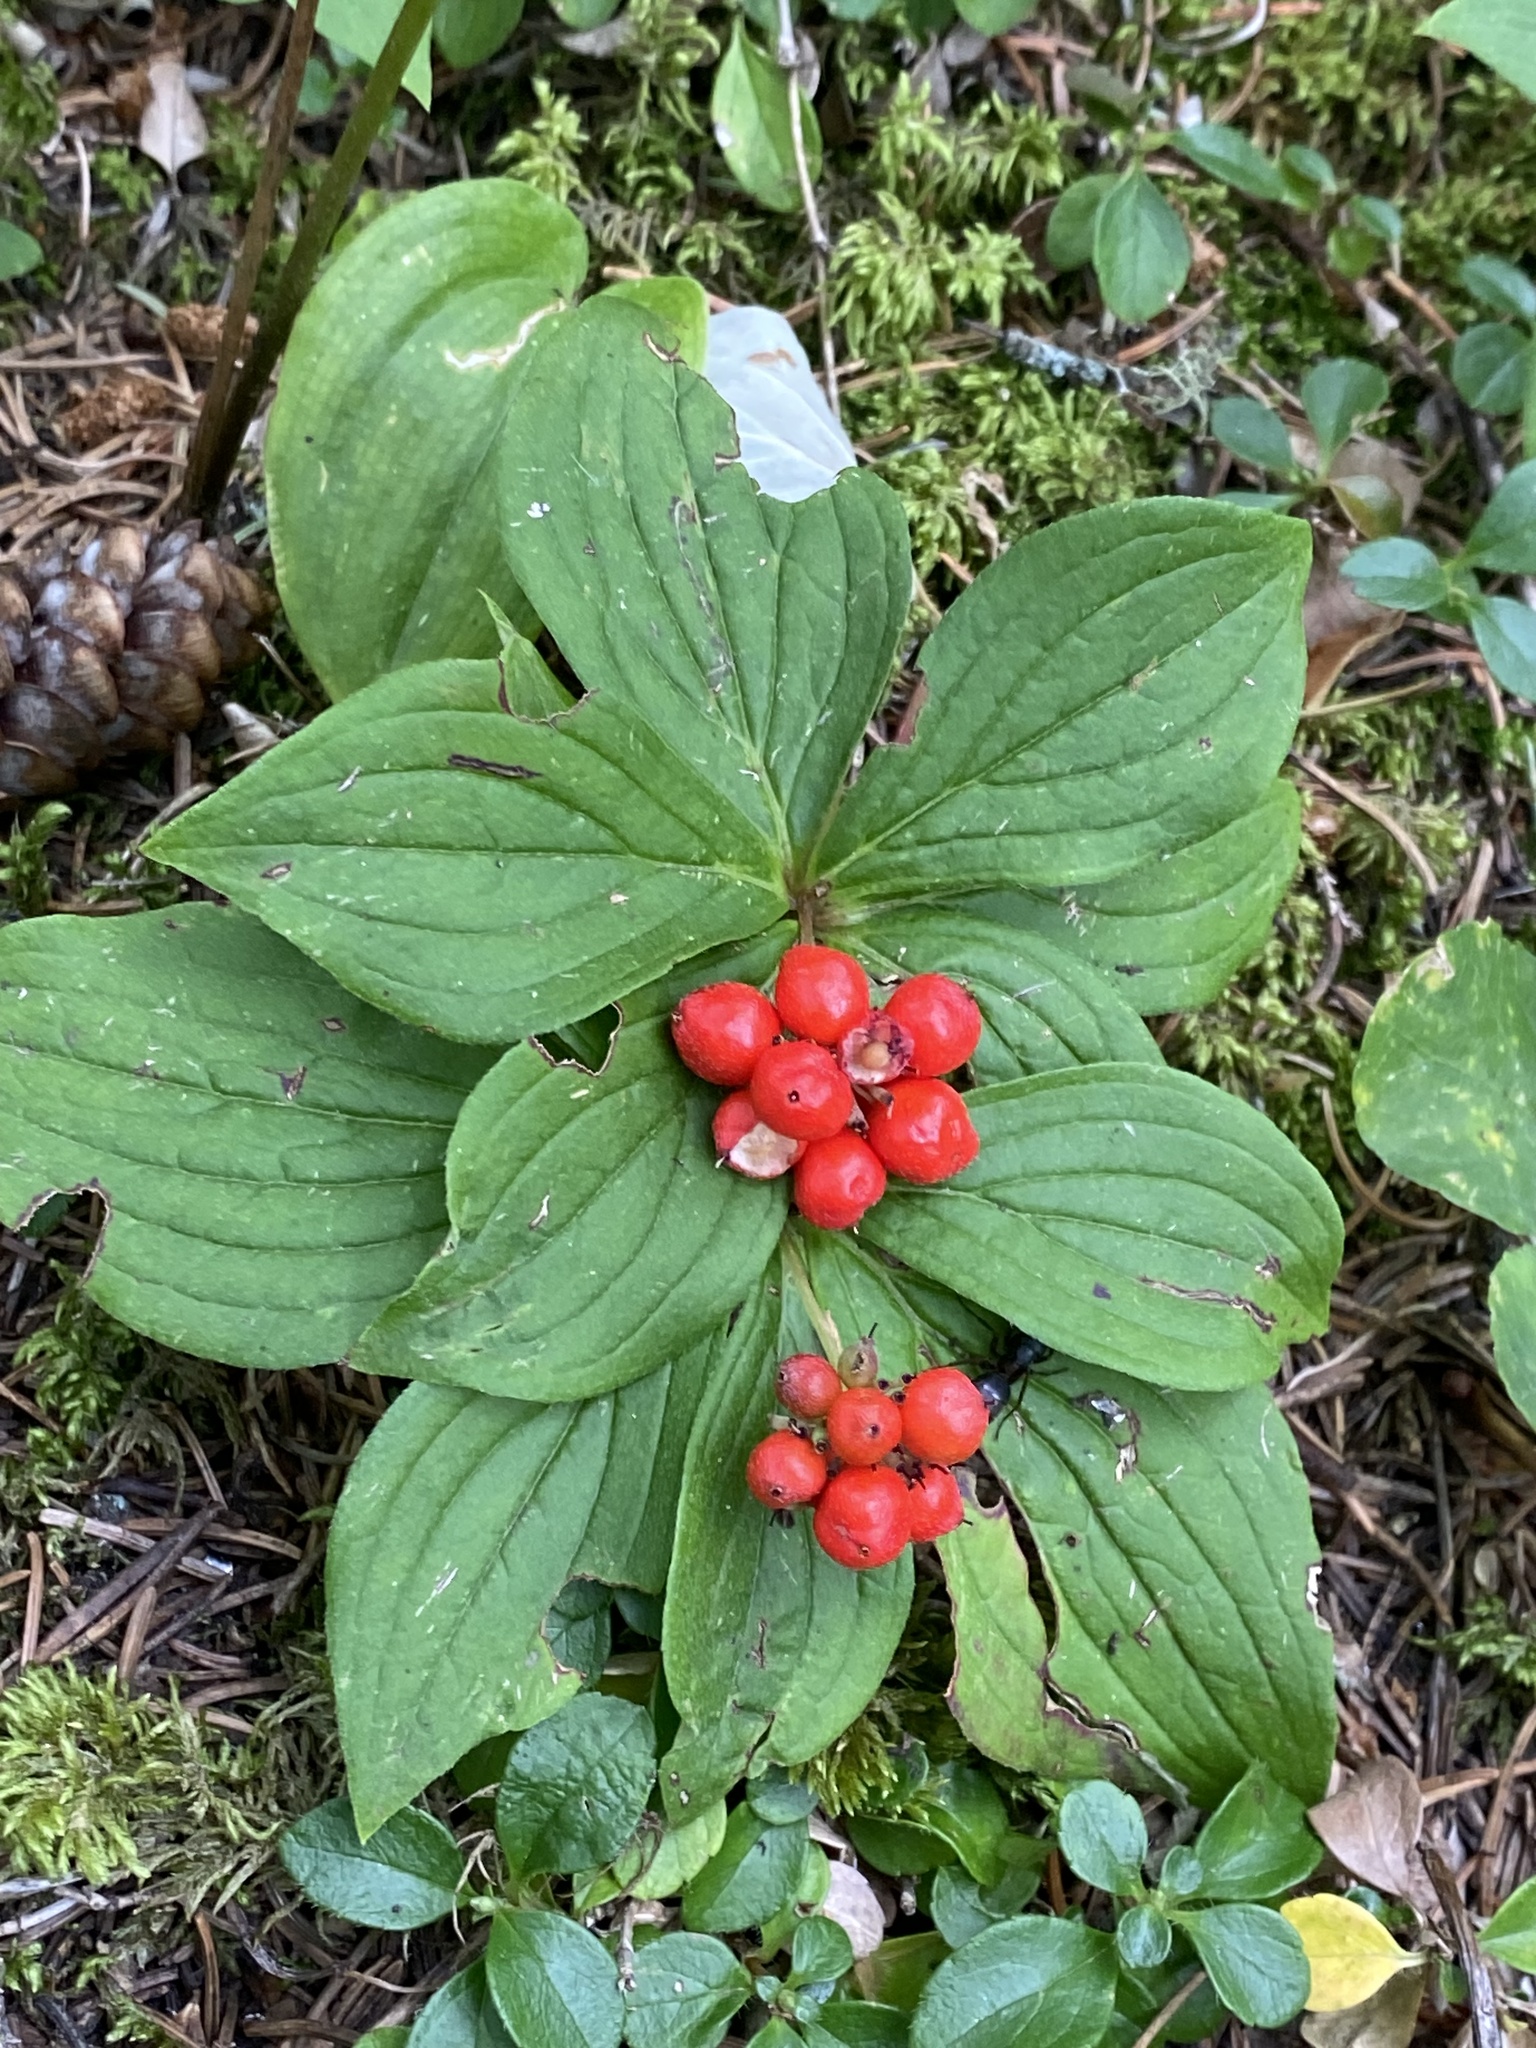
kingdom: Plantae
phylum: Tracheophyta
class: Magnoliopsida
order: Cornales
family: Cornaceae
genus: Cornus
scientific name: Cornus canadensis
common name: Creeping dogwood
